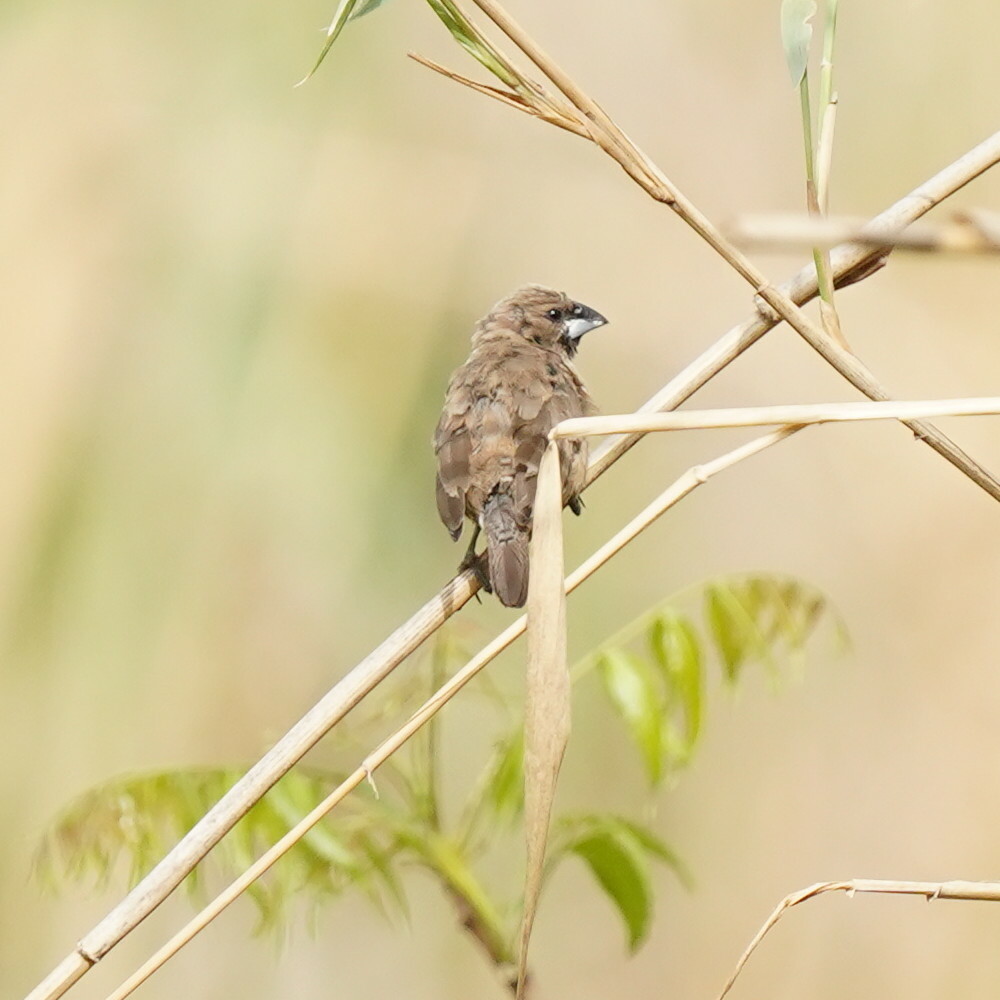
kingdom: Animalia
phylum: Chordata
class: Aves
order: Passeriformes
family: Estrildidae
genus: Lonchura
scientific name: Lonchura cucullata
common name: Bronze mannikin
